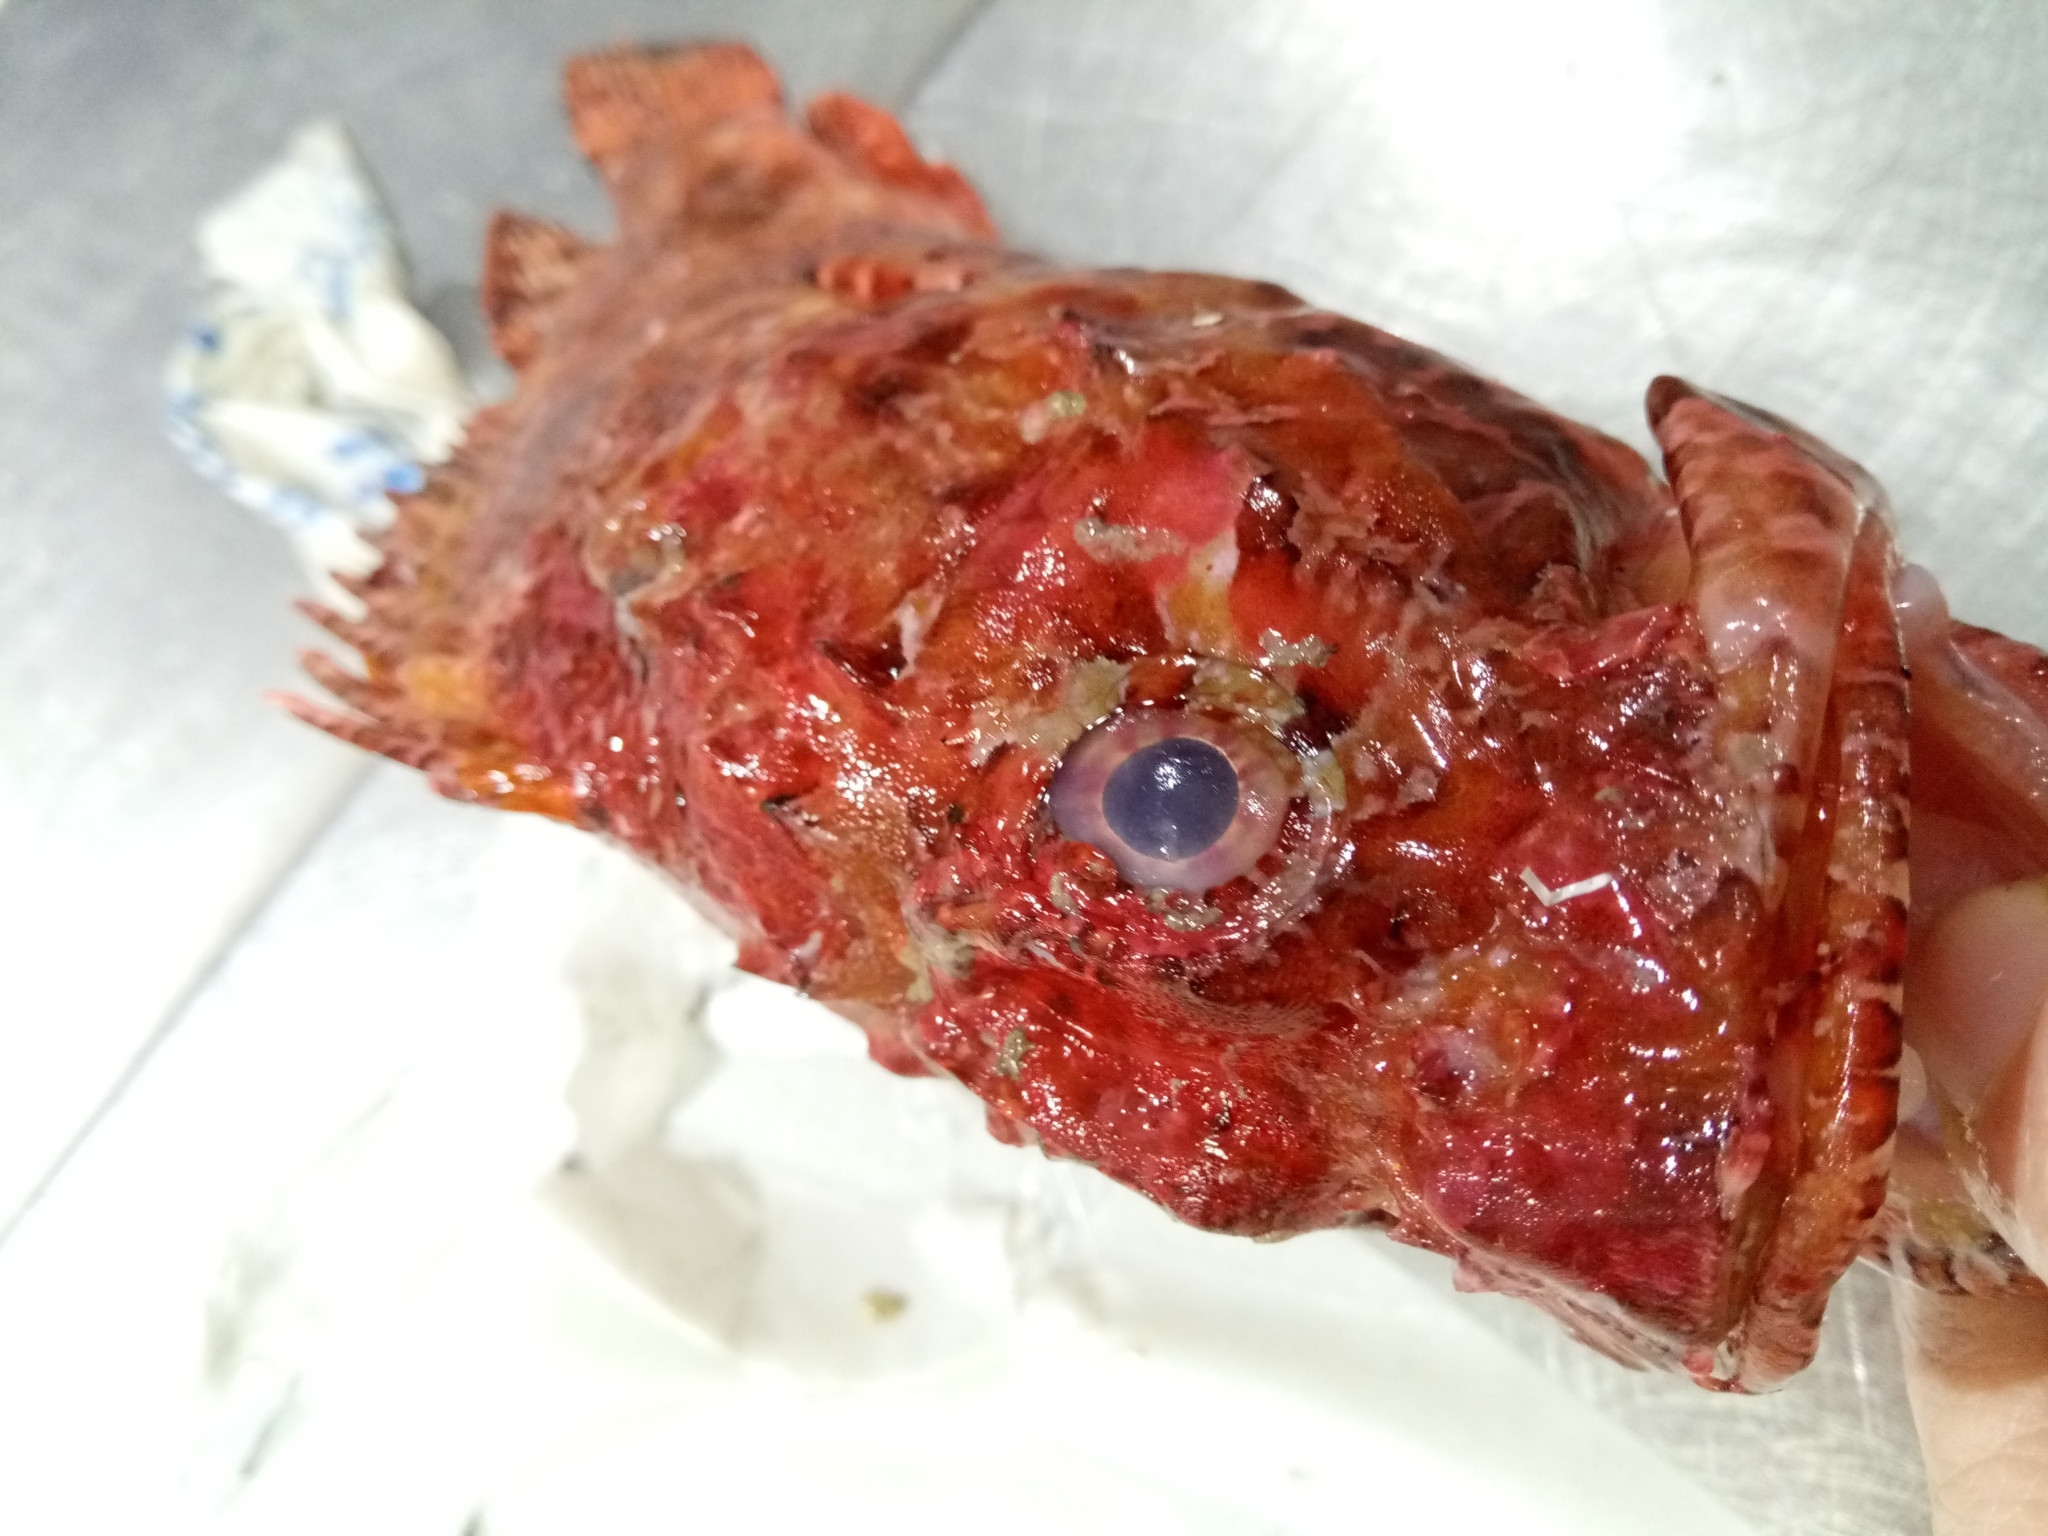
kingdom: Animalia
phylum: Chordata
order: Scorpaeniformes
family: Scorpaenidae
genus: Scorpaena
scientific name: Scorpaena scrofa
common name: Red scorpionfish
